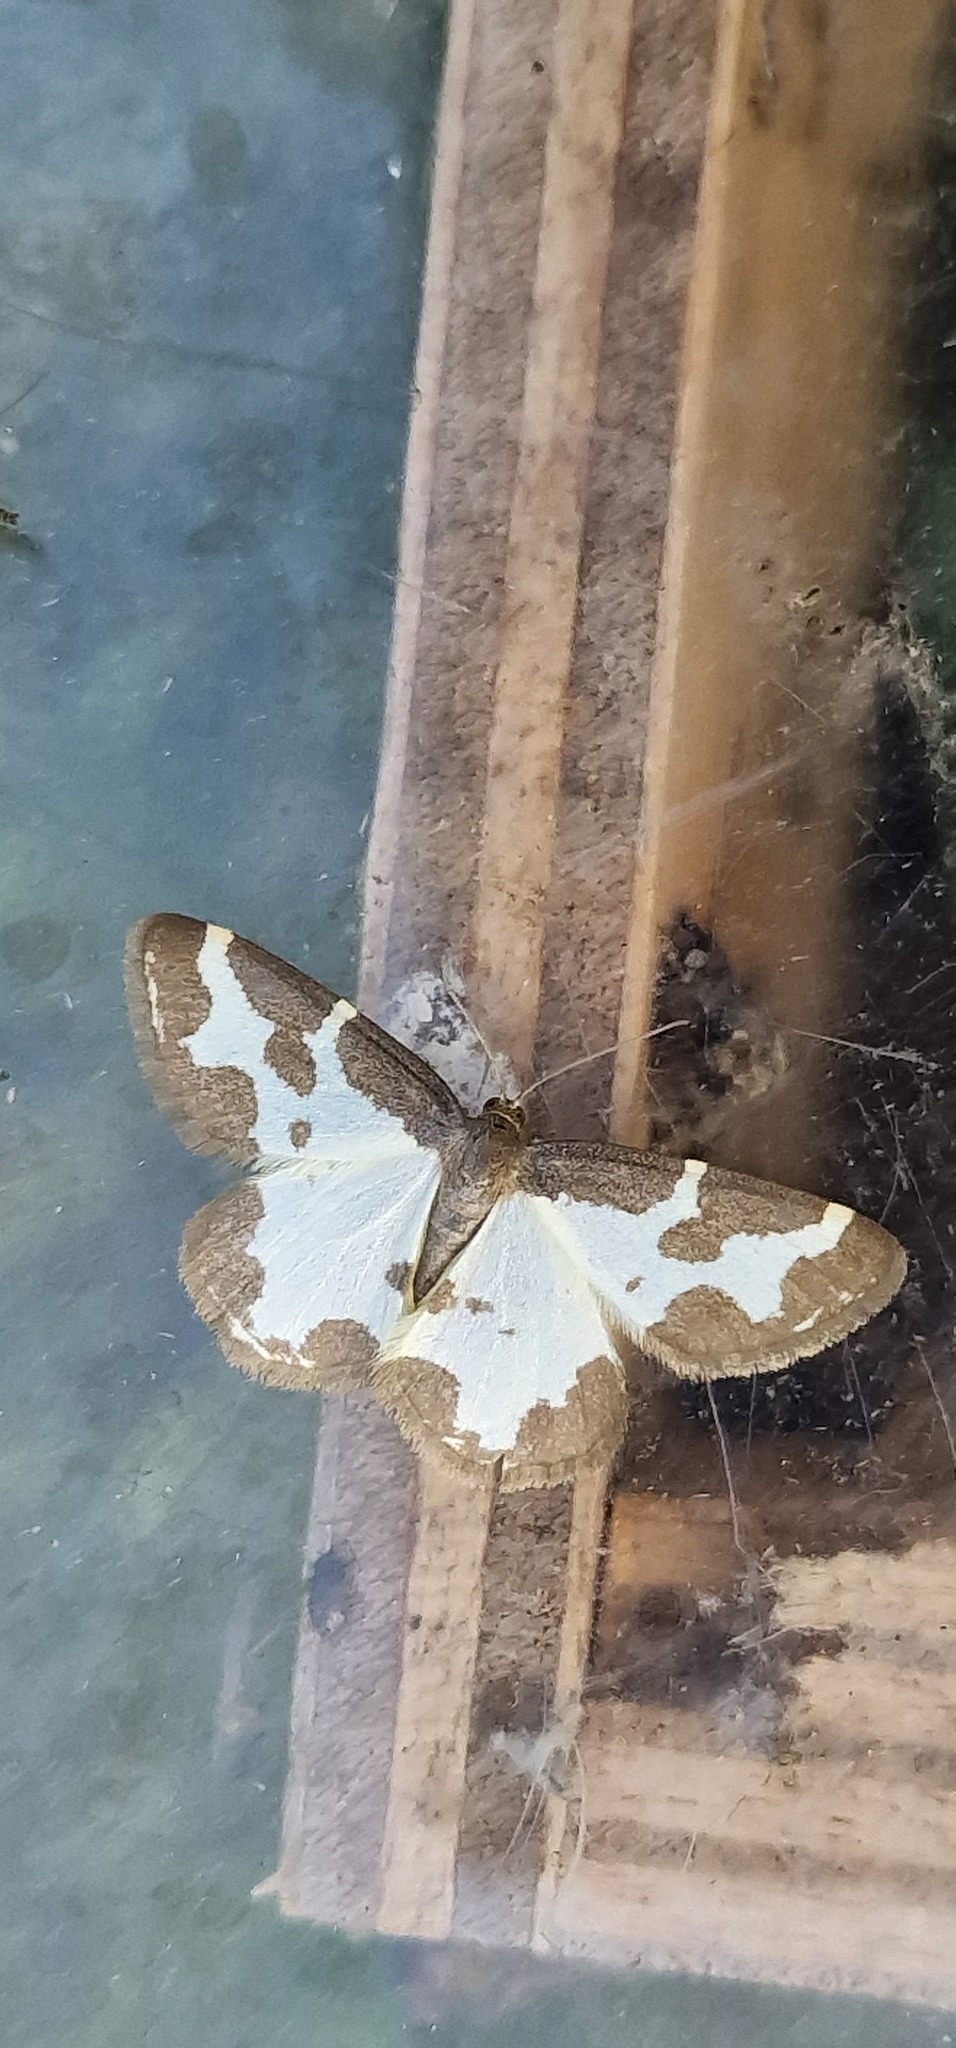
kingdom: Animalia
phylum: Arthropoda
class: Insecta
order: Lepidoptera
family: Geometridae
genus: Lomaspilis
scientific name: Lomaspilis marginata
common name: Clouded border
